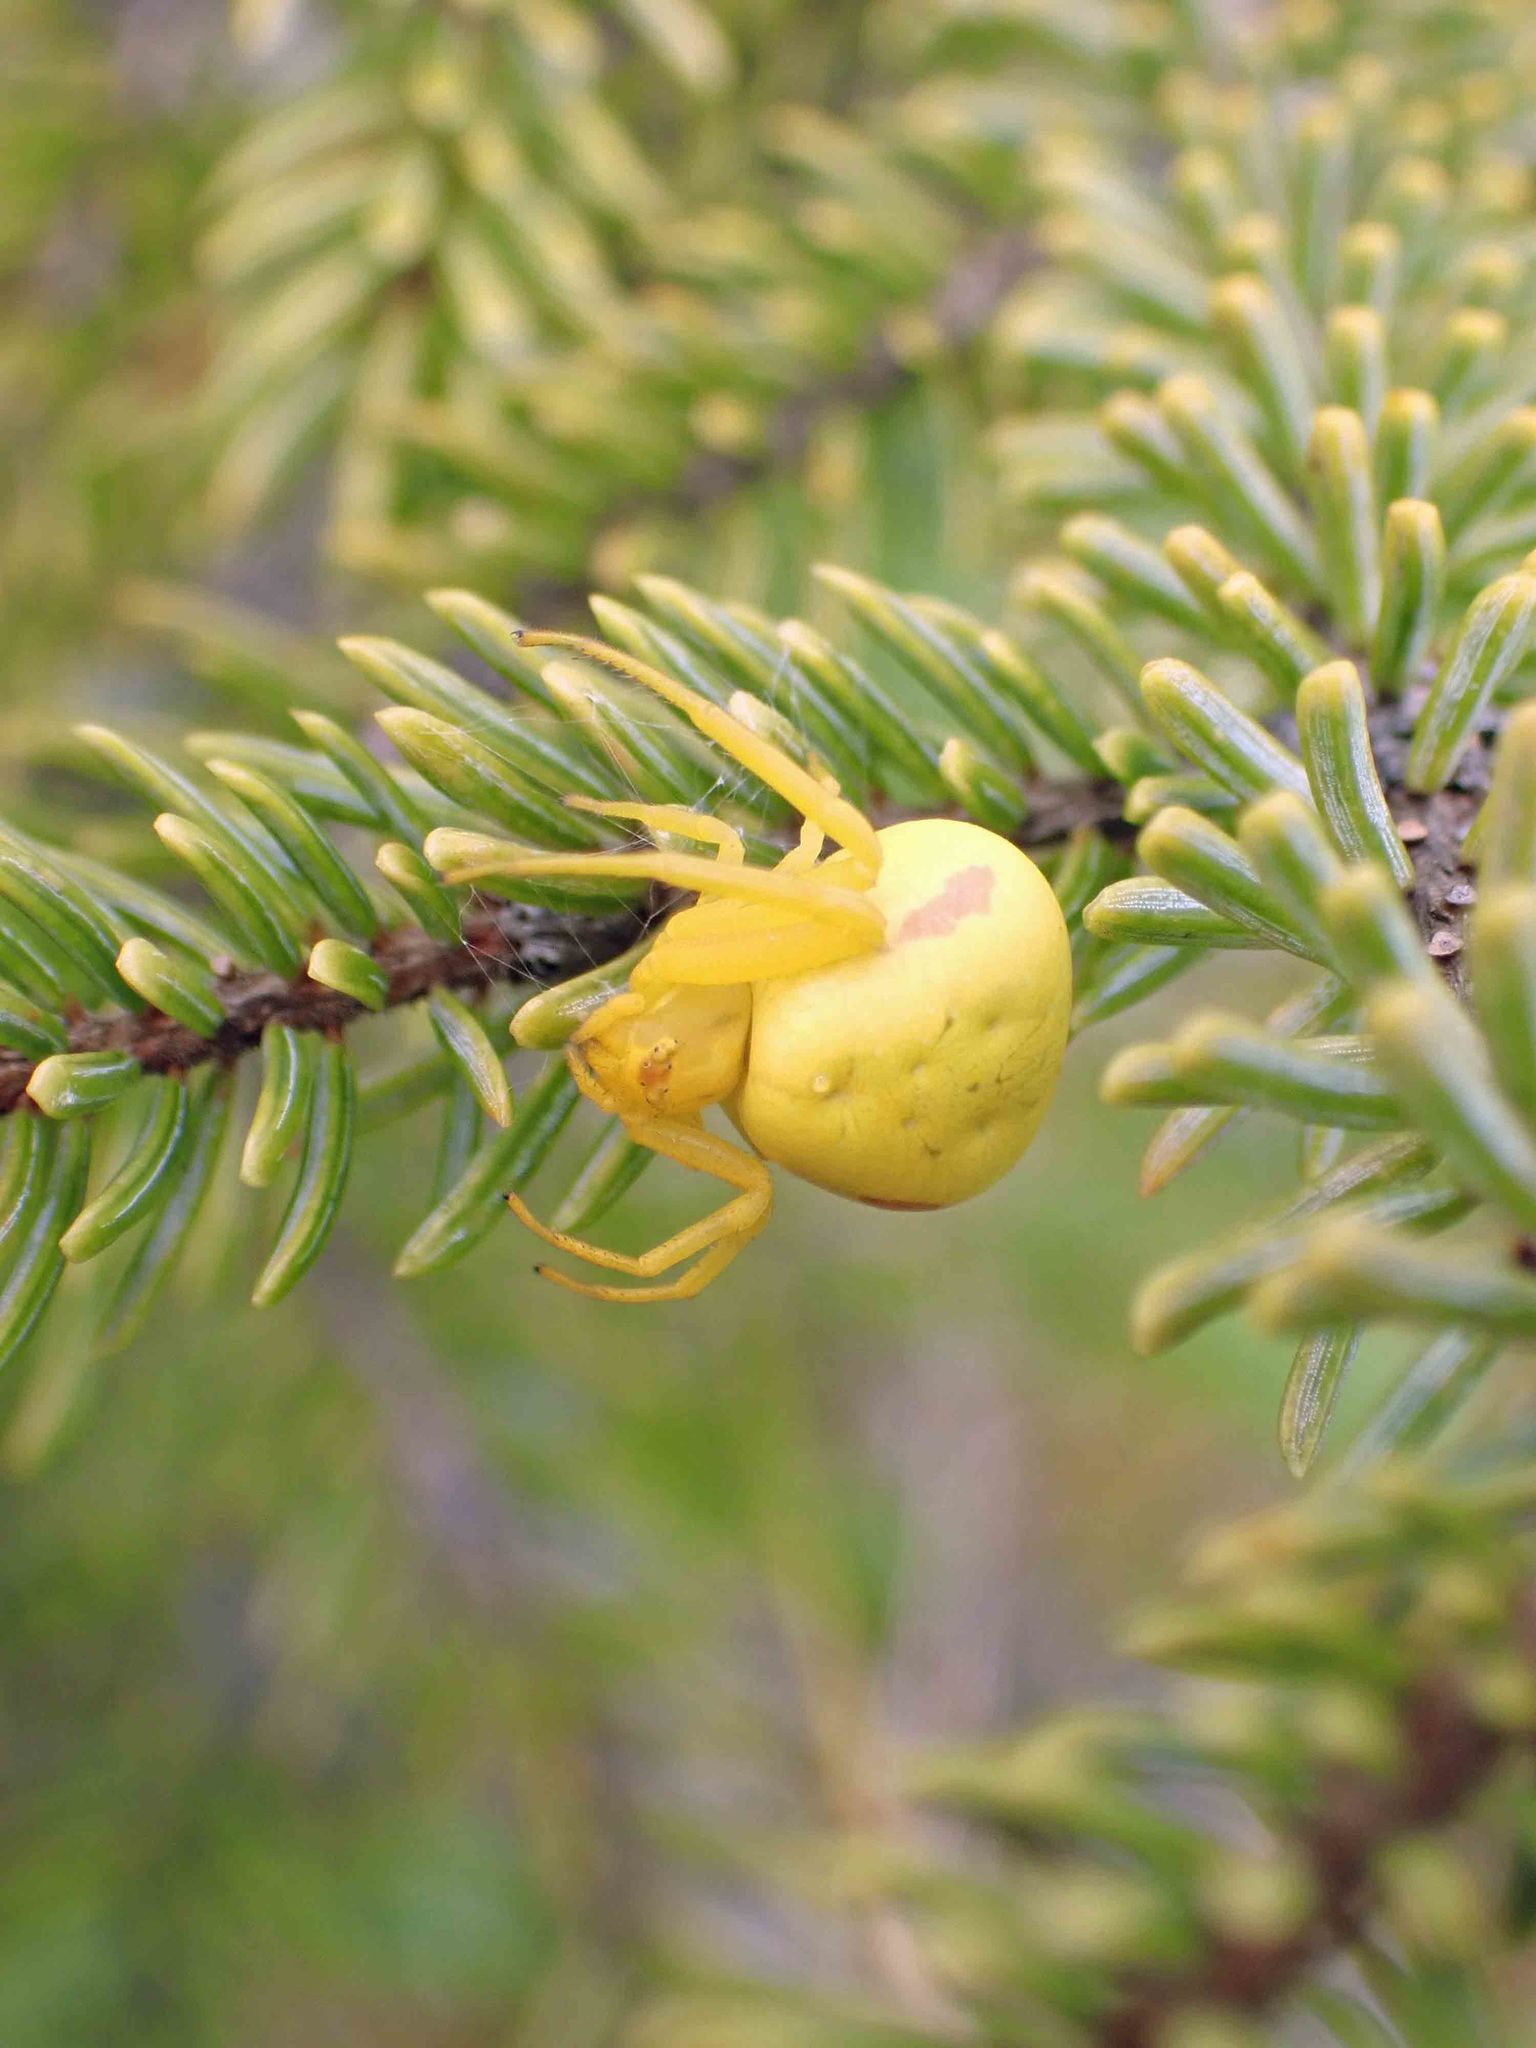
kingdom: Animalia
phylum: Arthropoda
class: Arachnida
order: Araneae
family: Thomisidae
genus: Misumena
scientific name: Misumena vatia
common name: Goldenrod crab spider
